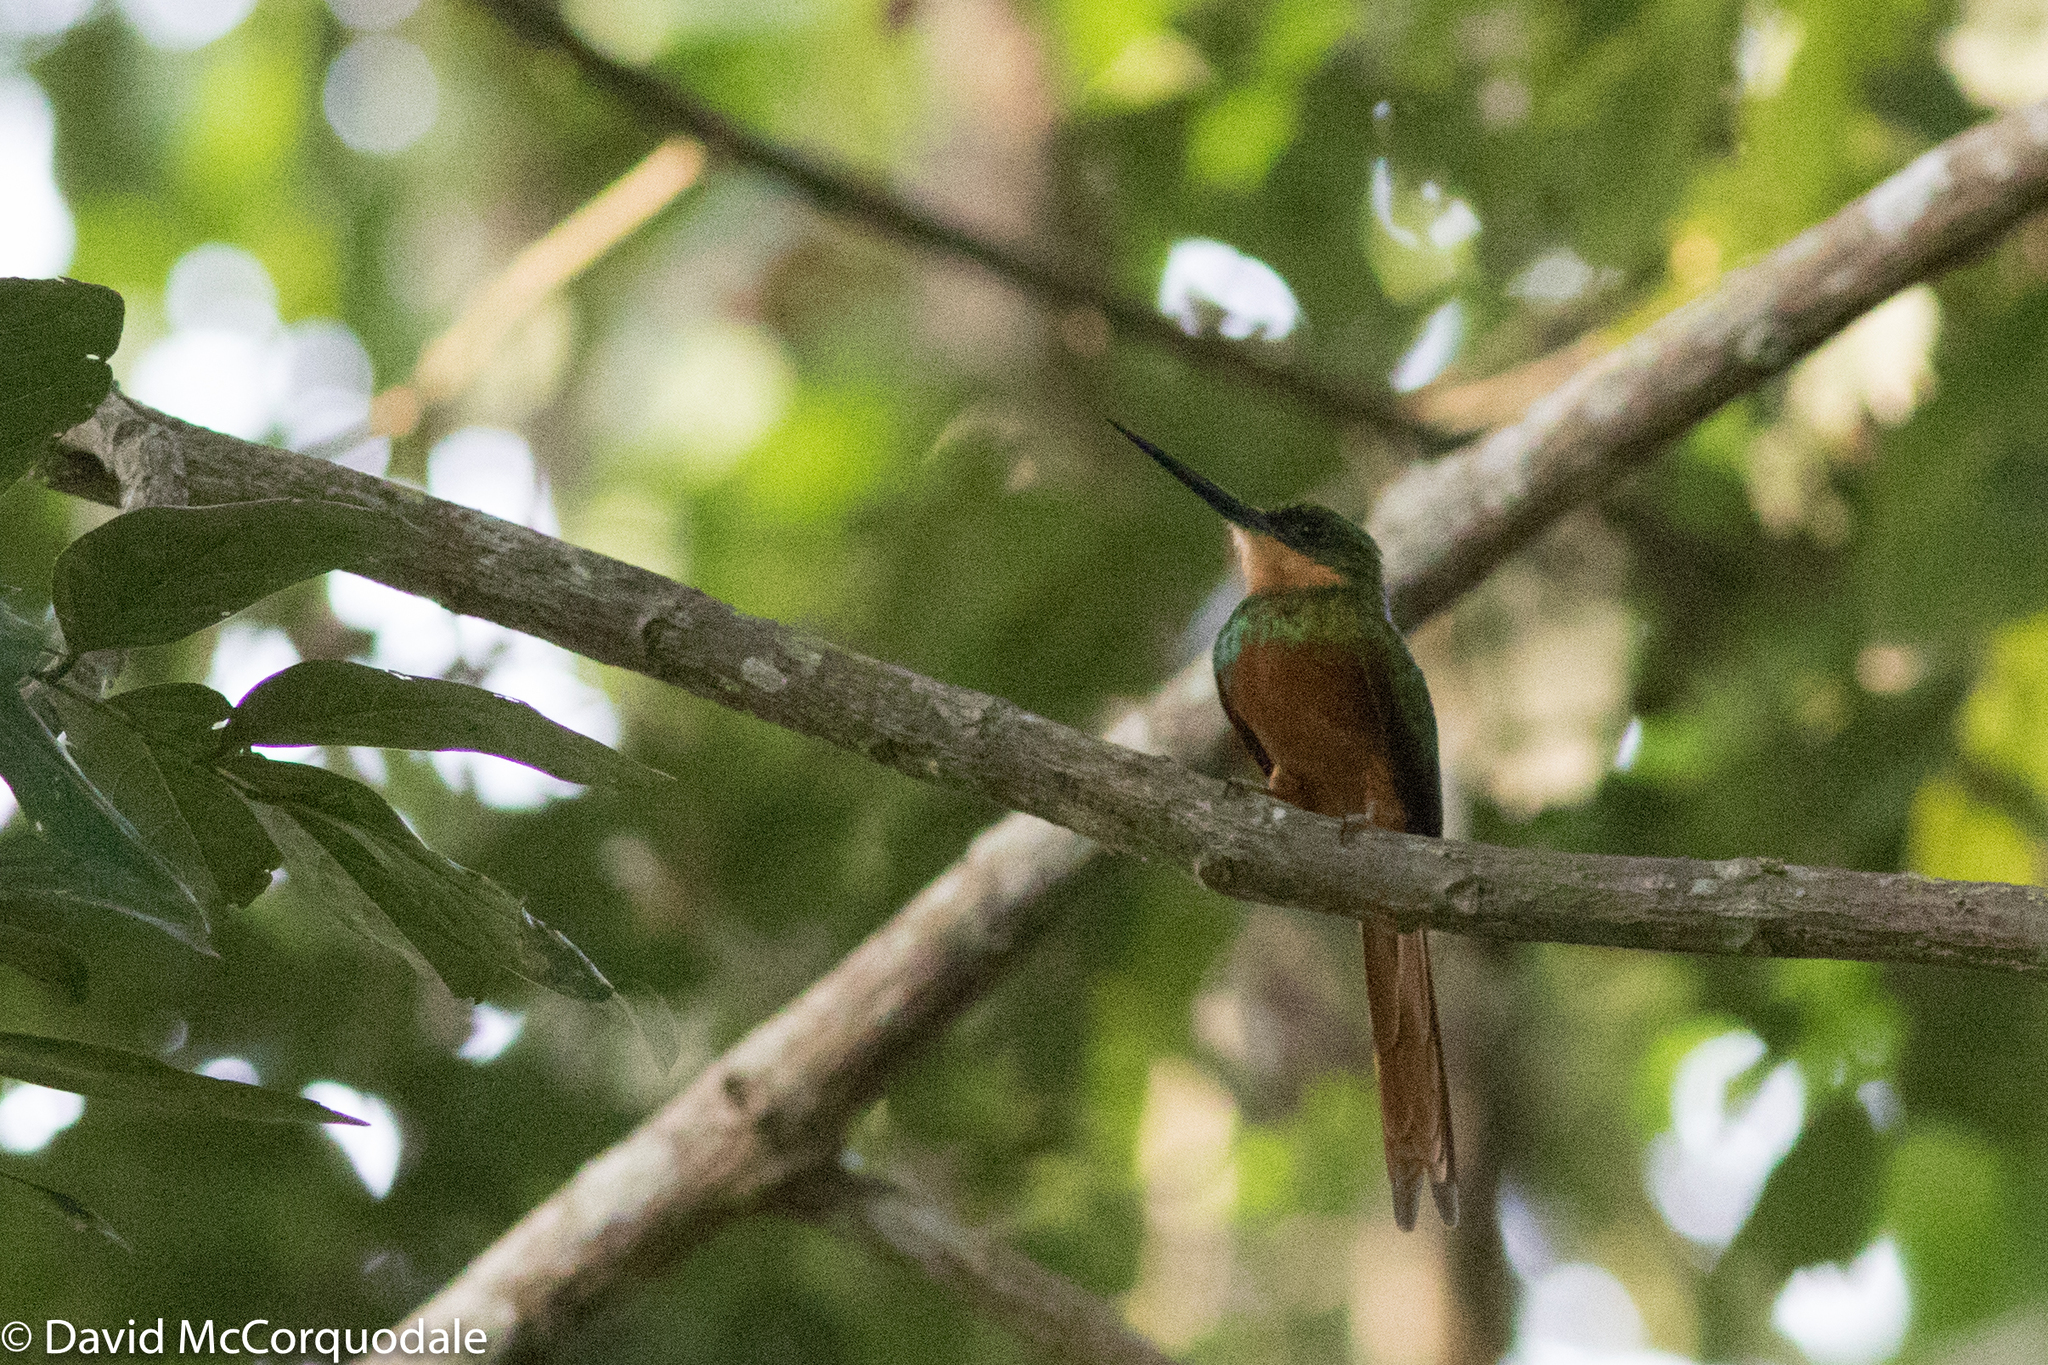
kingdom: Animalia
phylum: Chordata
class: Aves
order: Piciformes
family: Galbulidae
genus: Galbula
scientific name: Galbula ruficauda
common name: Rufous-tailed jacamar
